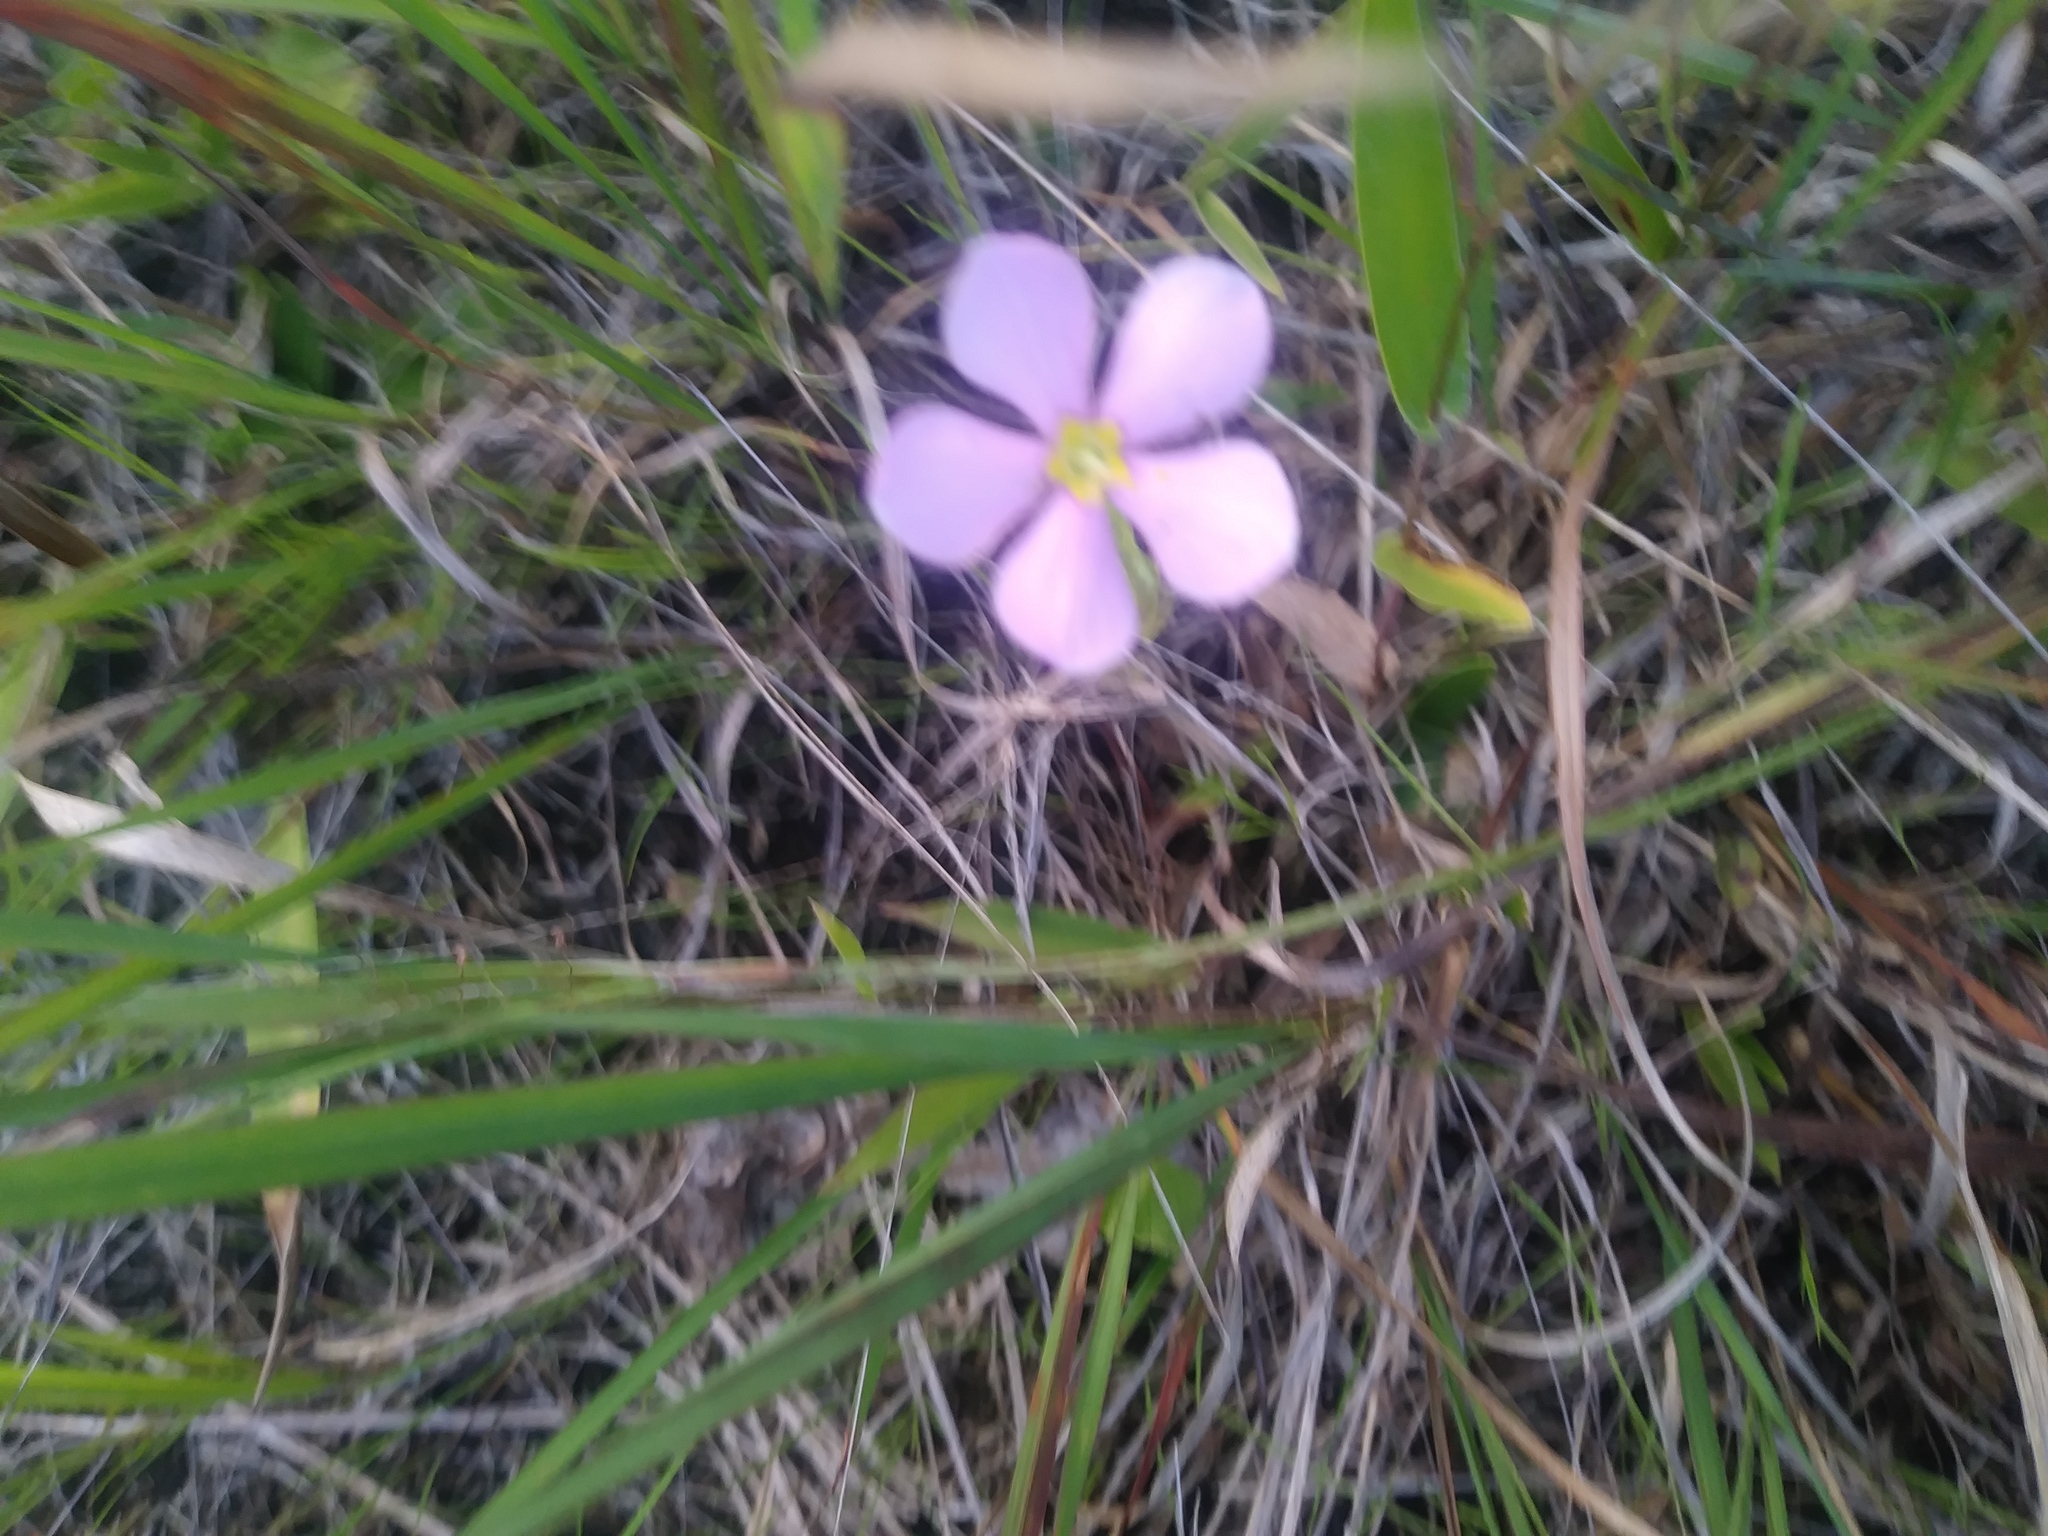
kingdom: Plantae
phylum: Tracheophyta
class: Magnoliopsida
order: Gentianales
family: Gentianaceae
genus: Sabatia
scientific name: Sabatia angularis
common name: Rose-pink
